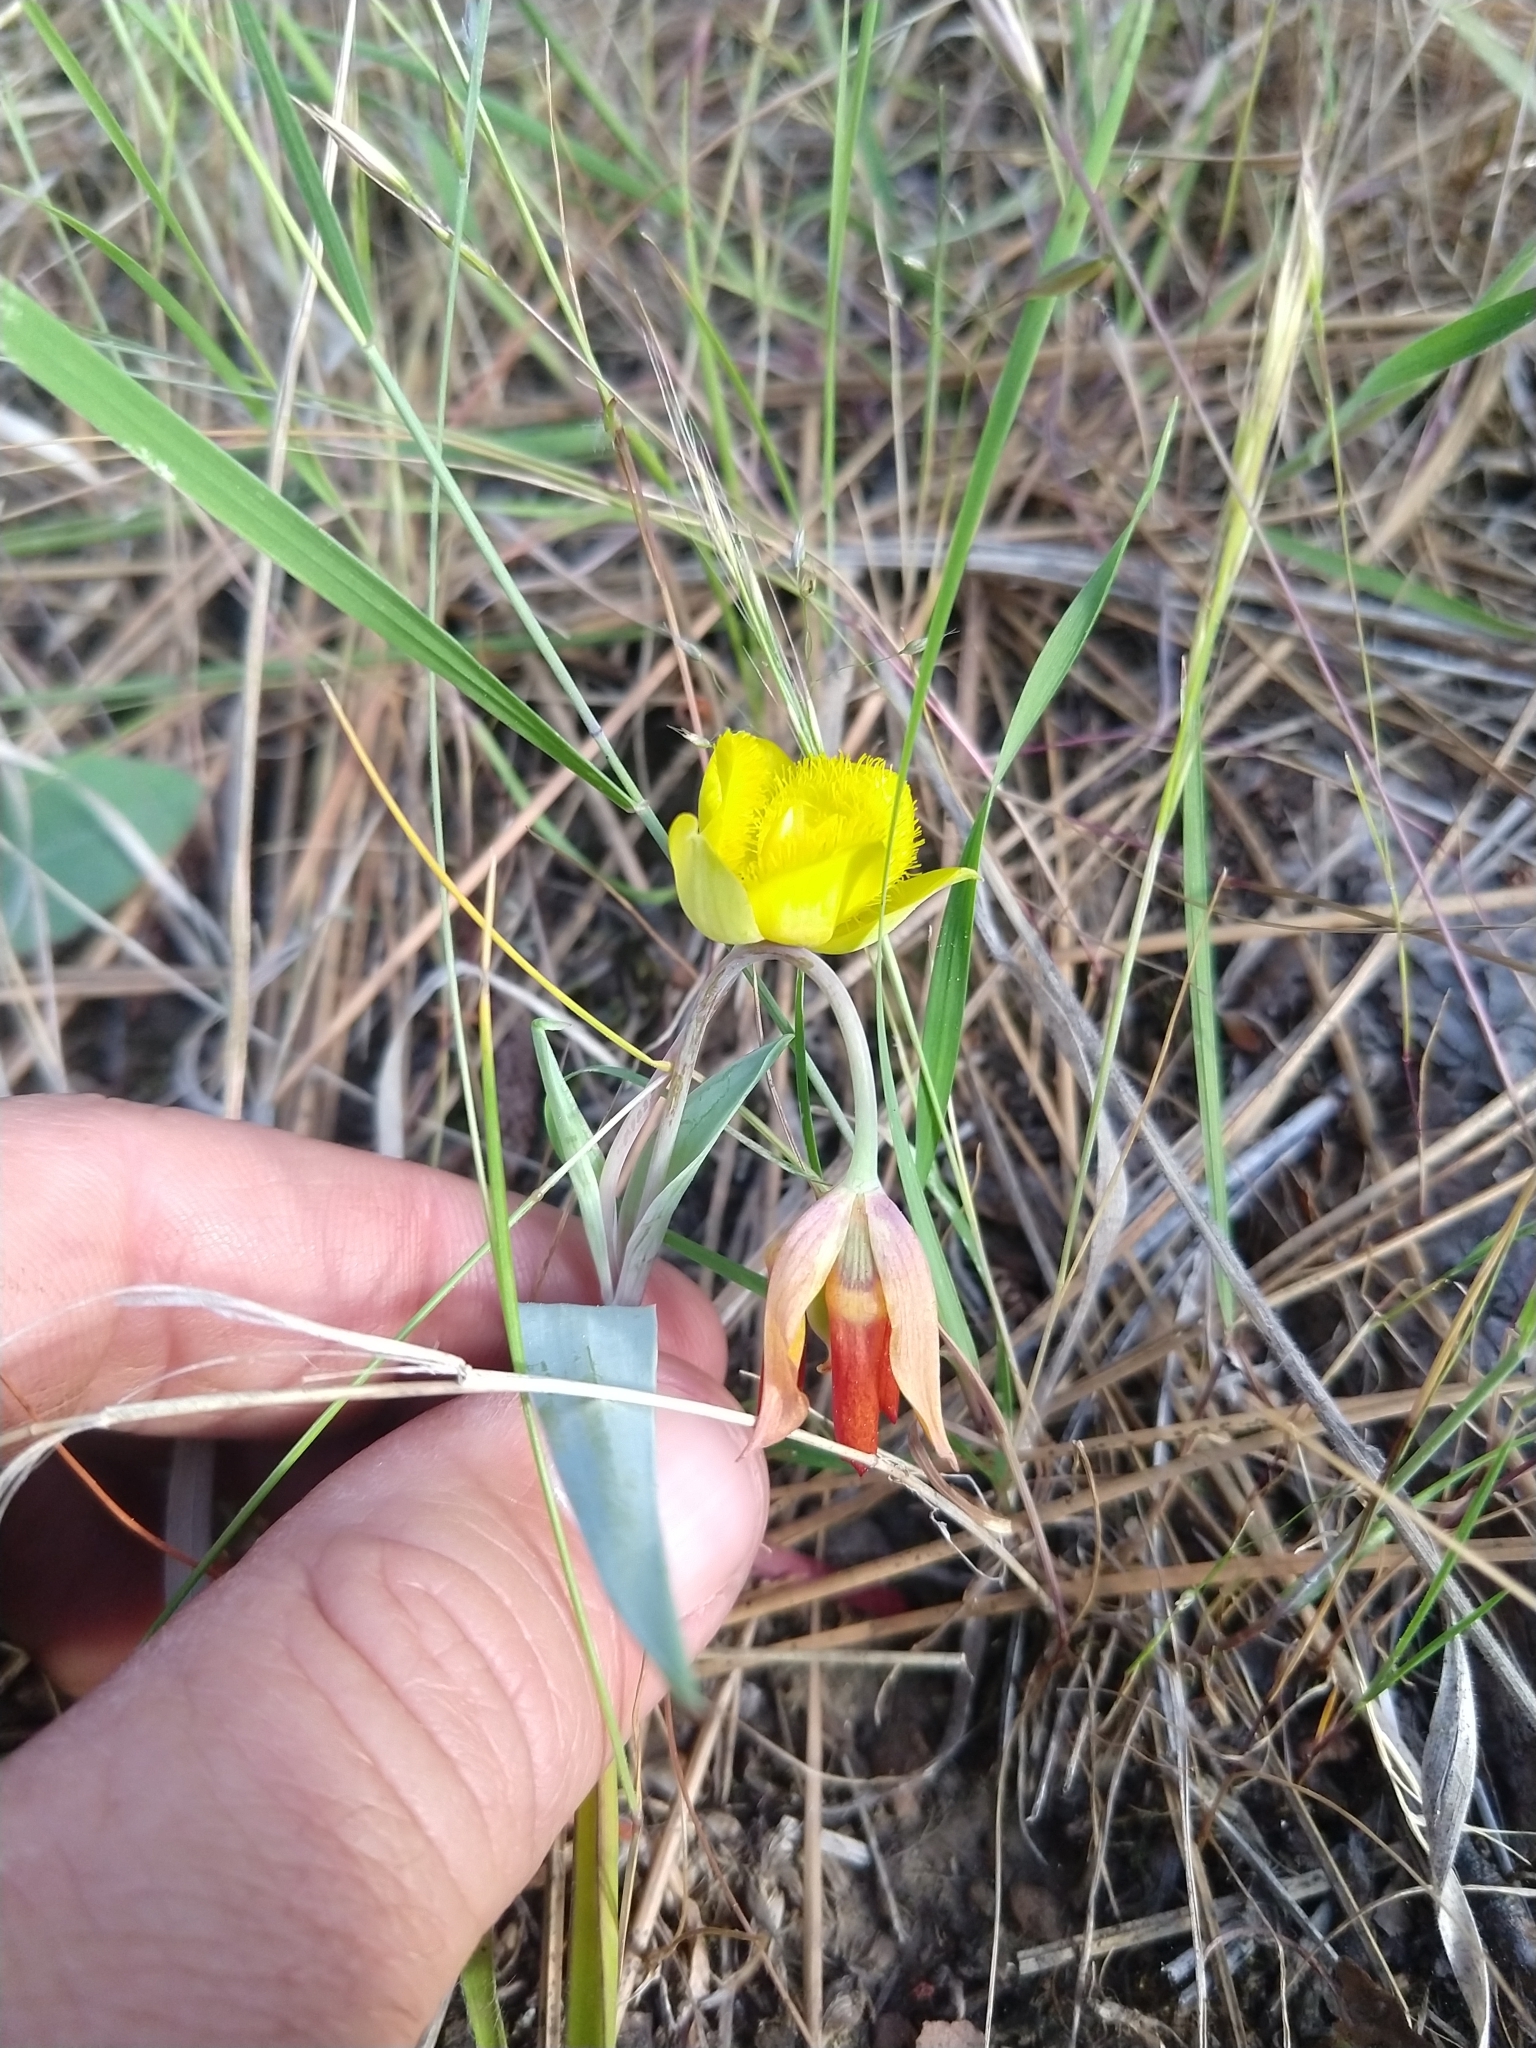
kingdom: Plantae
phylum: Tracheophyta
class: Liliopsida
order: Liliales
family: Liliaceae
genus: Calochortus
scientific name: Calochortus monophyllus
